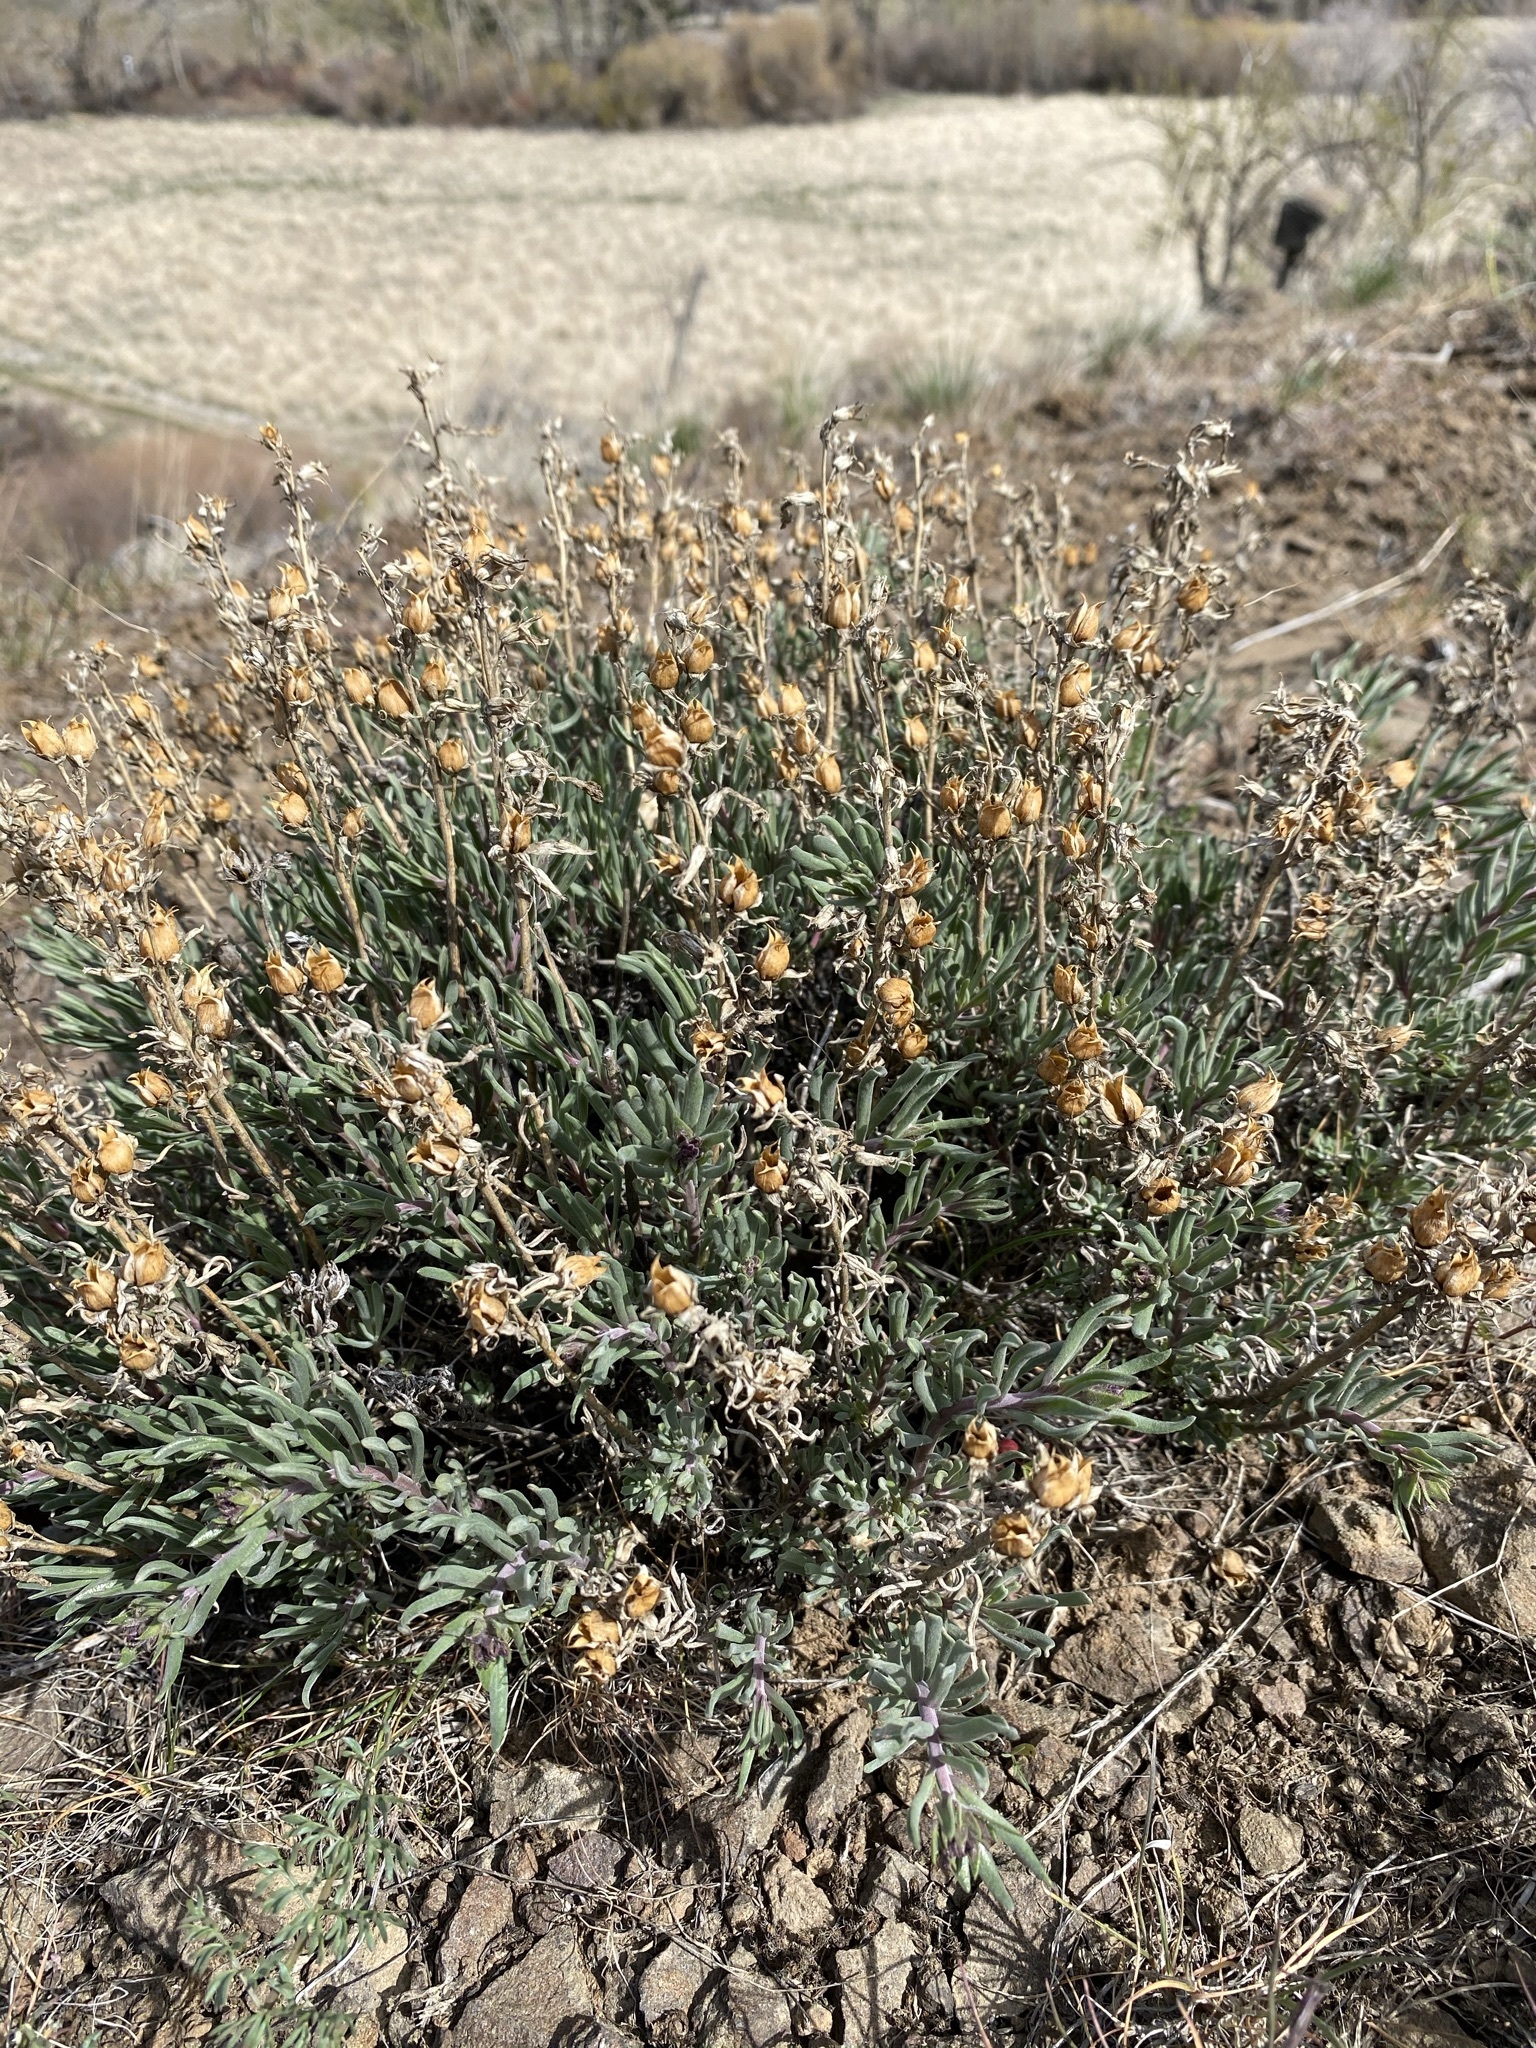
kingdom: Plantae
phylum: Tracheophyta
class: Magnoliopsida
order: Lamiales
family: Plantaginaceae
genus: Penstemon
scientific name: Penstemon gairdneri
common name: Gairdner's penstemon
